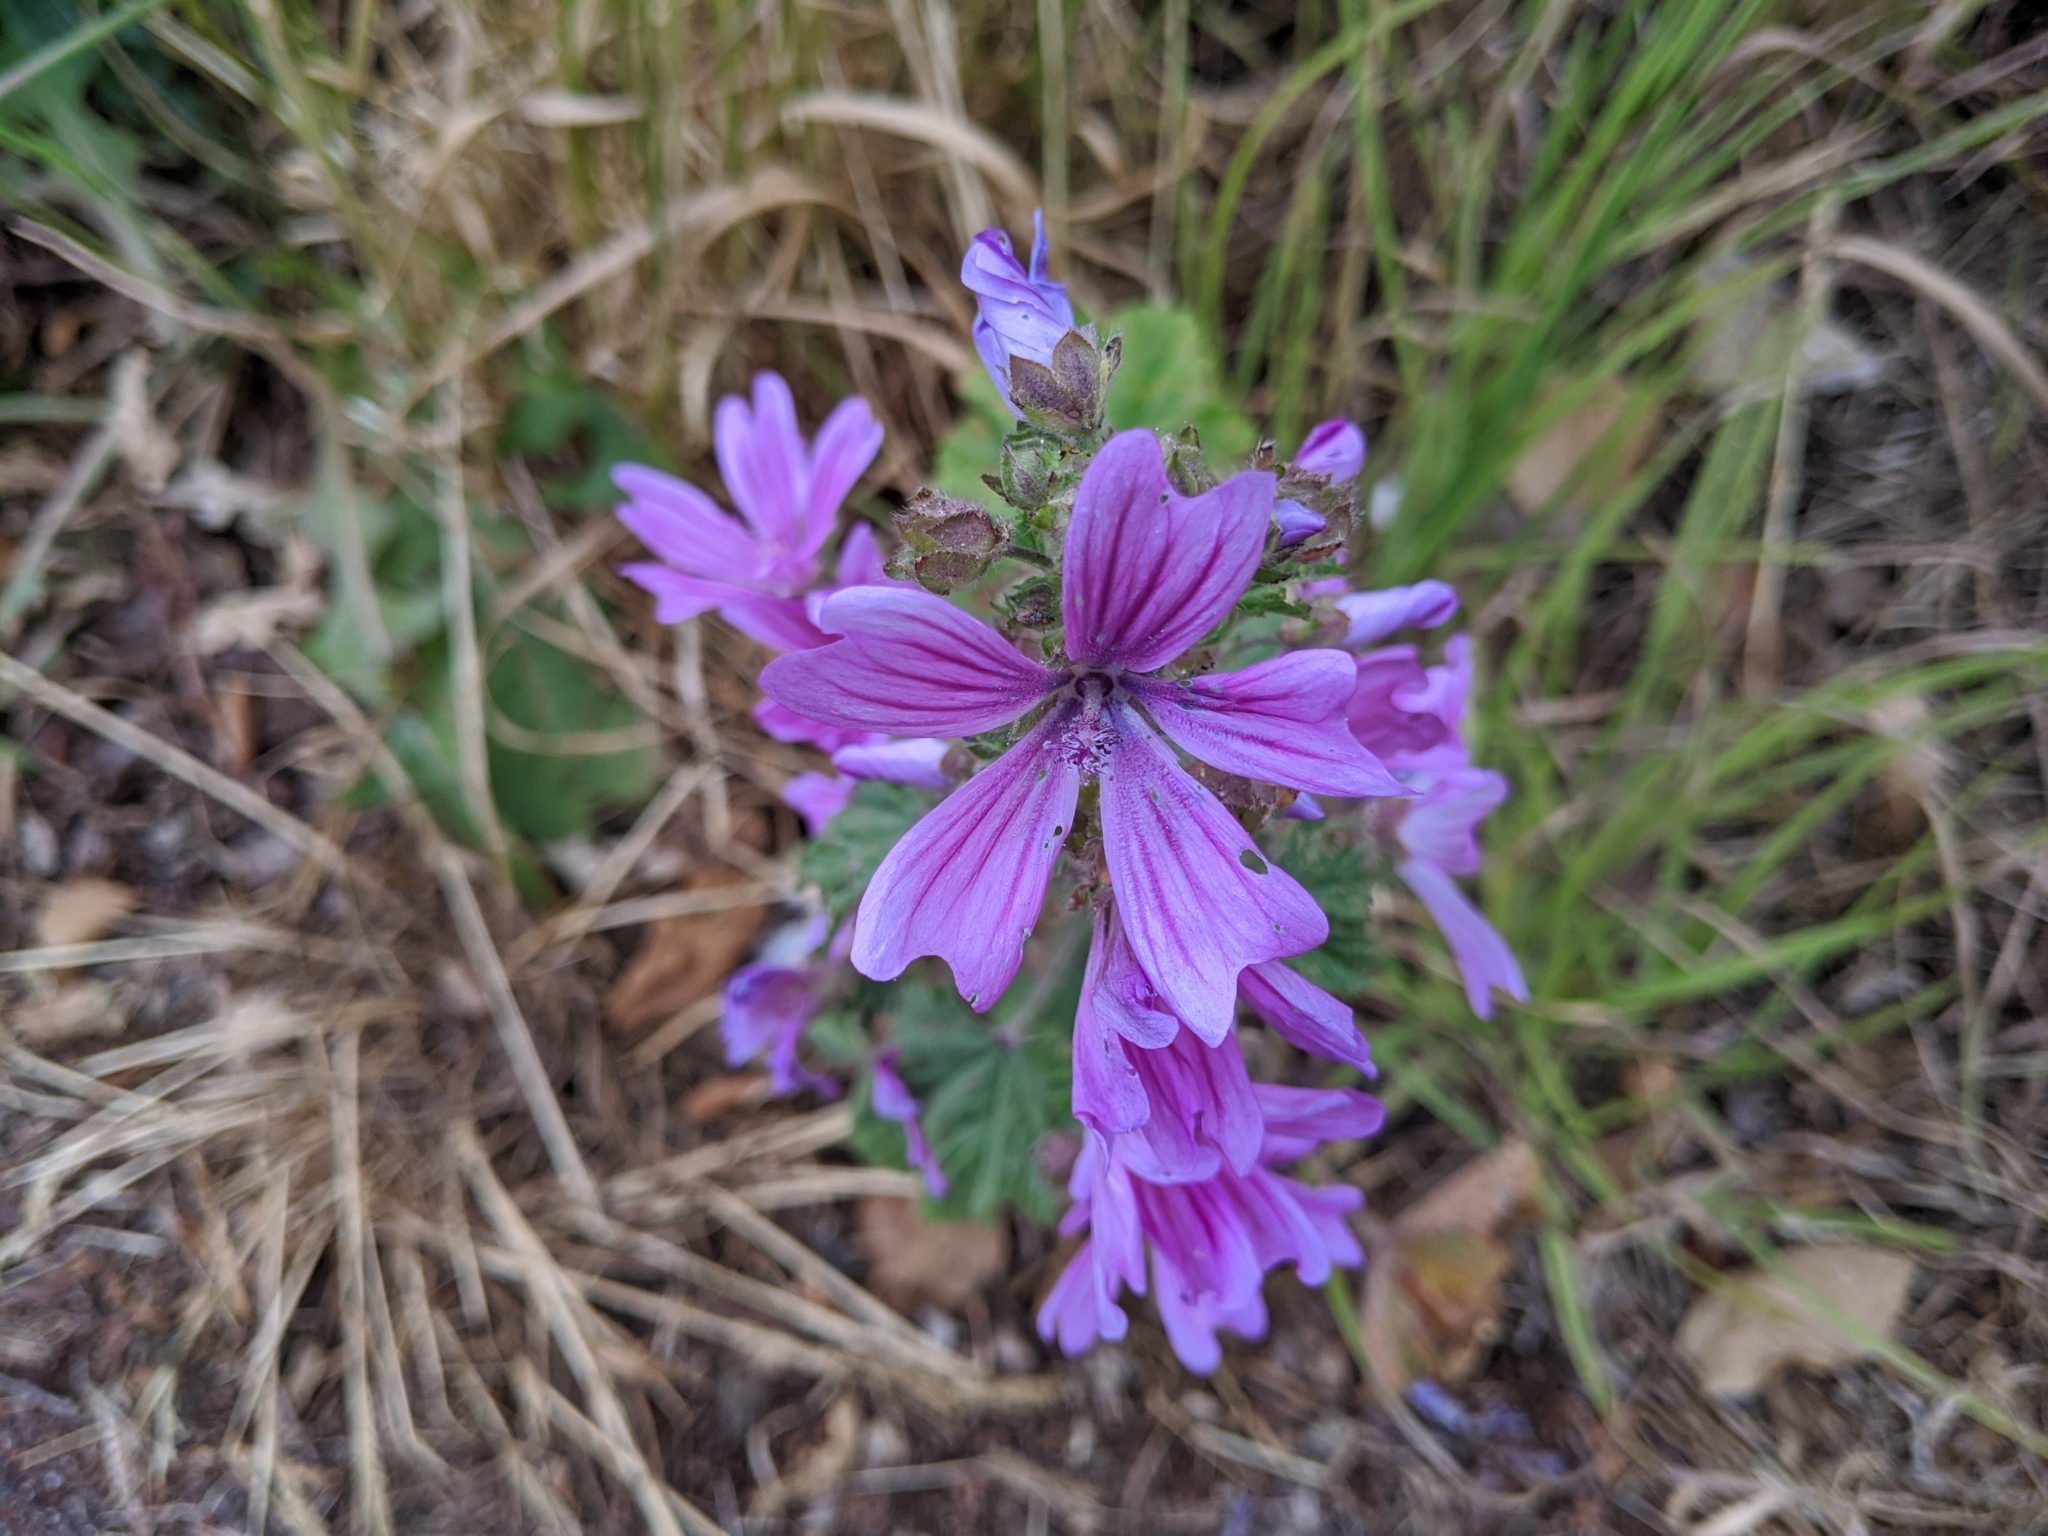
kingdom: Plantae
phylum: Tracheophyta
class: Magnoliopsida
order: Malvales
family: Malvaceae
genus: Malva
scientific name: Malva sylvestris
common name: Common mallow
